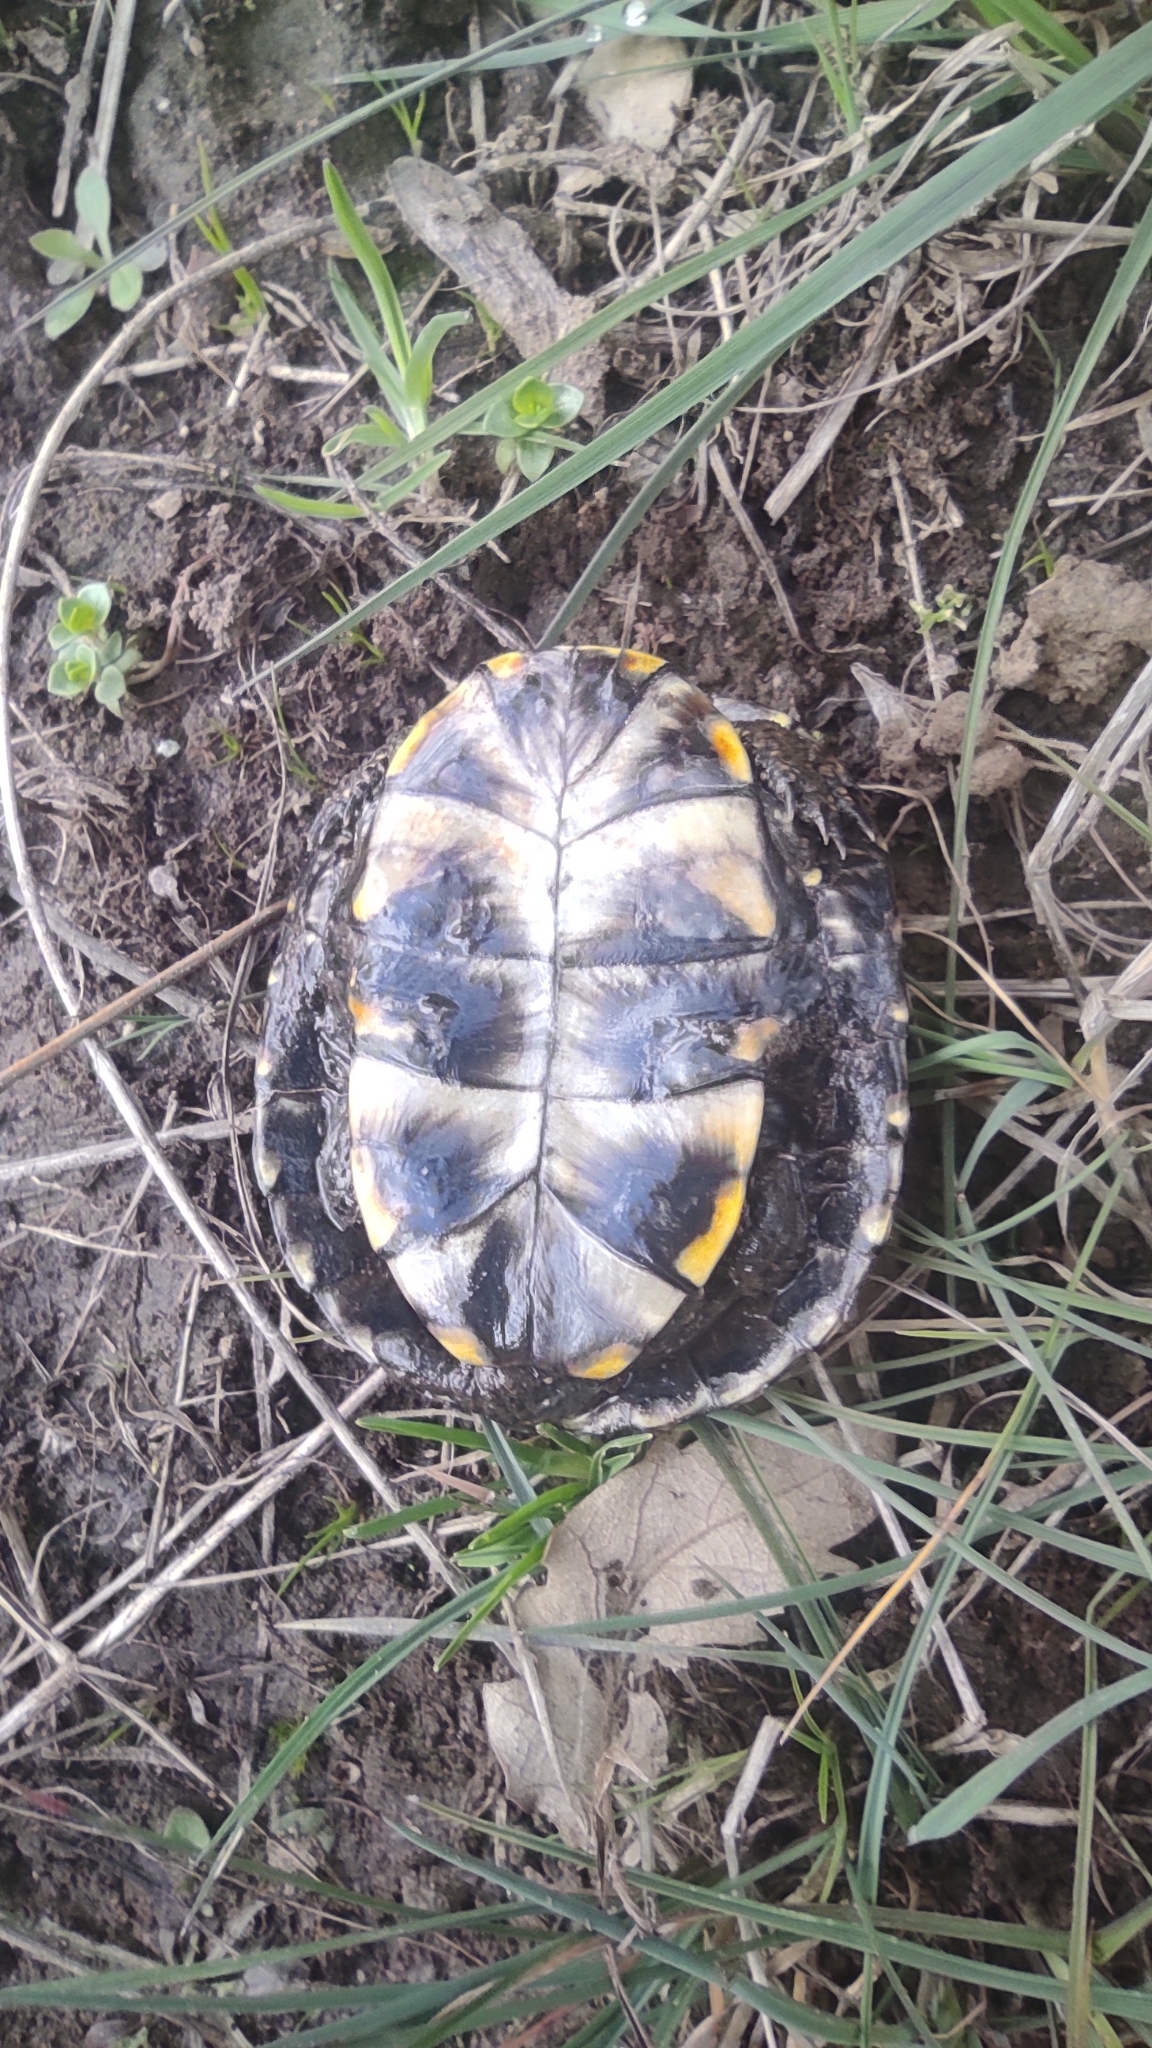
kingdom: Animalia
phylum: Chordata
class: Testudines
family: Emydidae
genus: Emys
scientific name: Emys orbicularis
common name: European pond turtle
